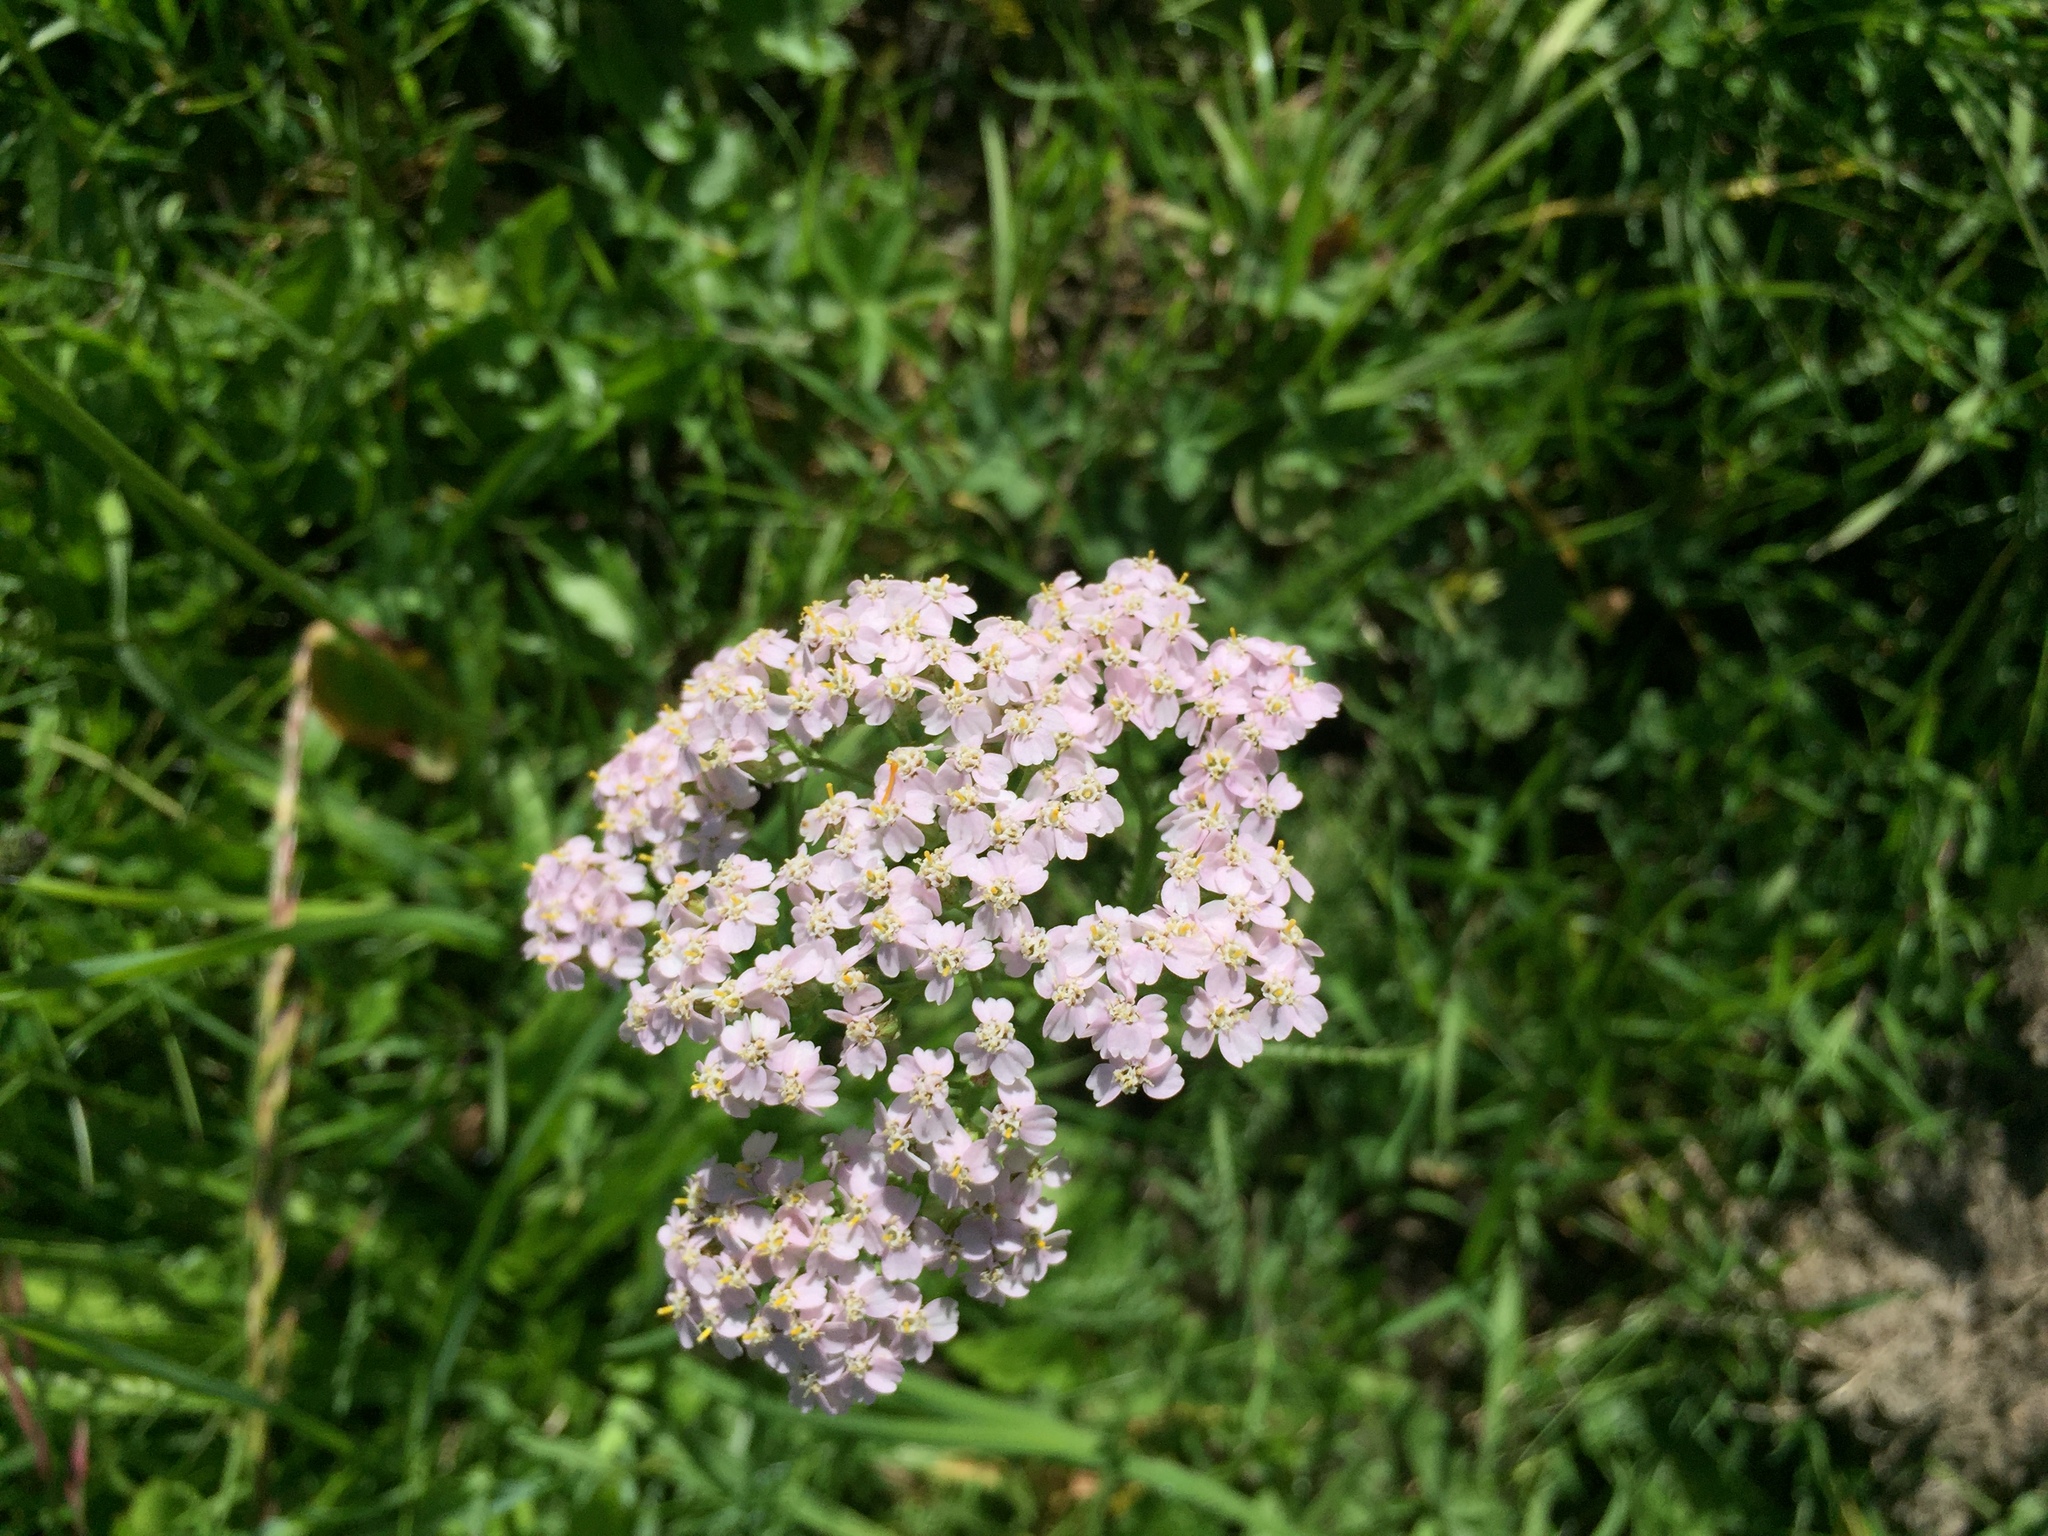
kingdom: Plantae
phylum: Tracheophyta
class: Magnoliopsida
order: Asterales
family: Asteraceae
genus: Achillea
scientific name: Achillea millefolium
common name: Yarrow
